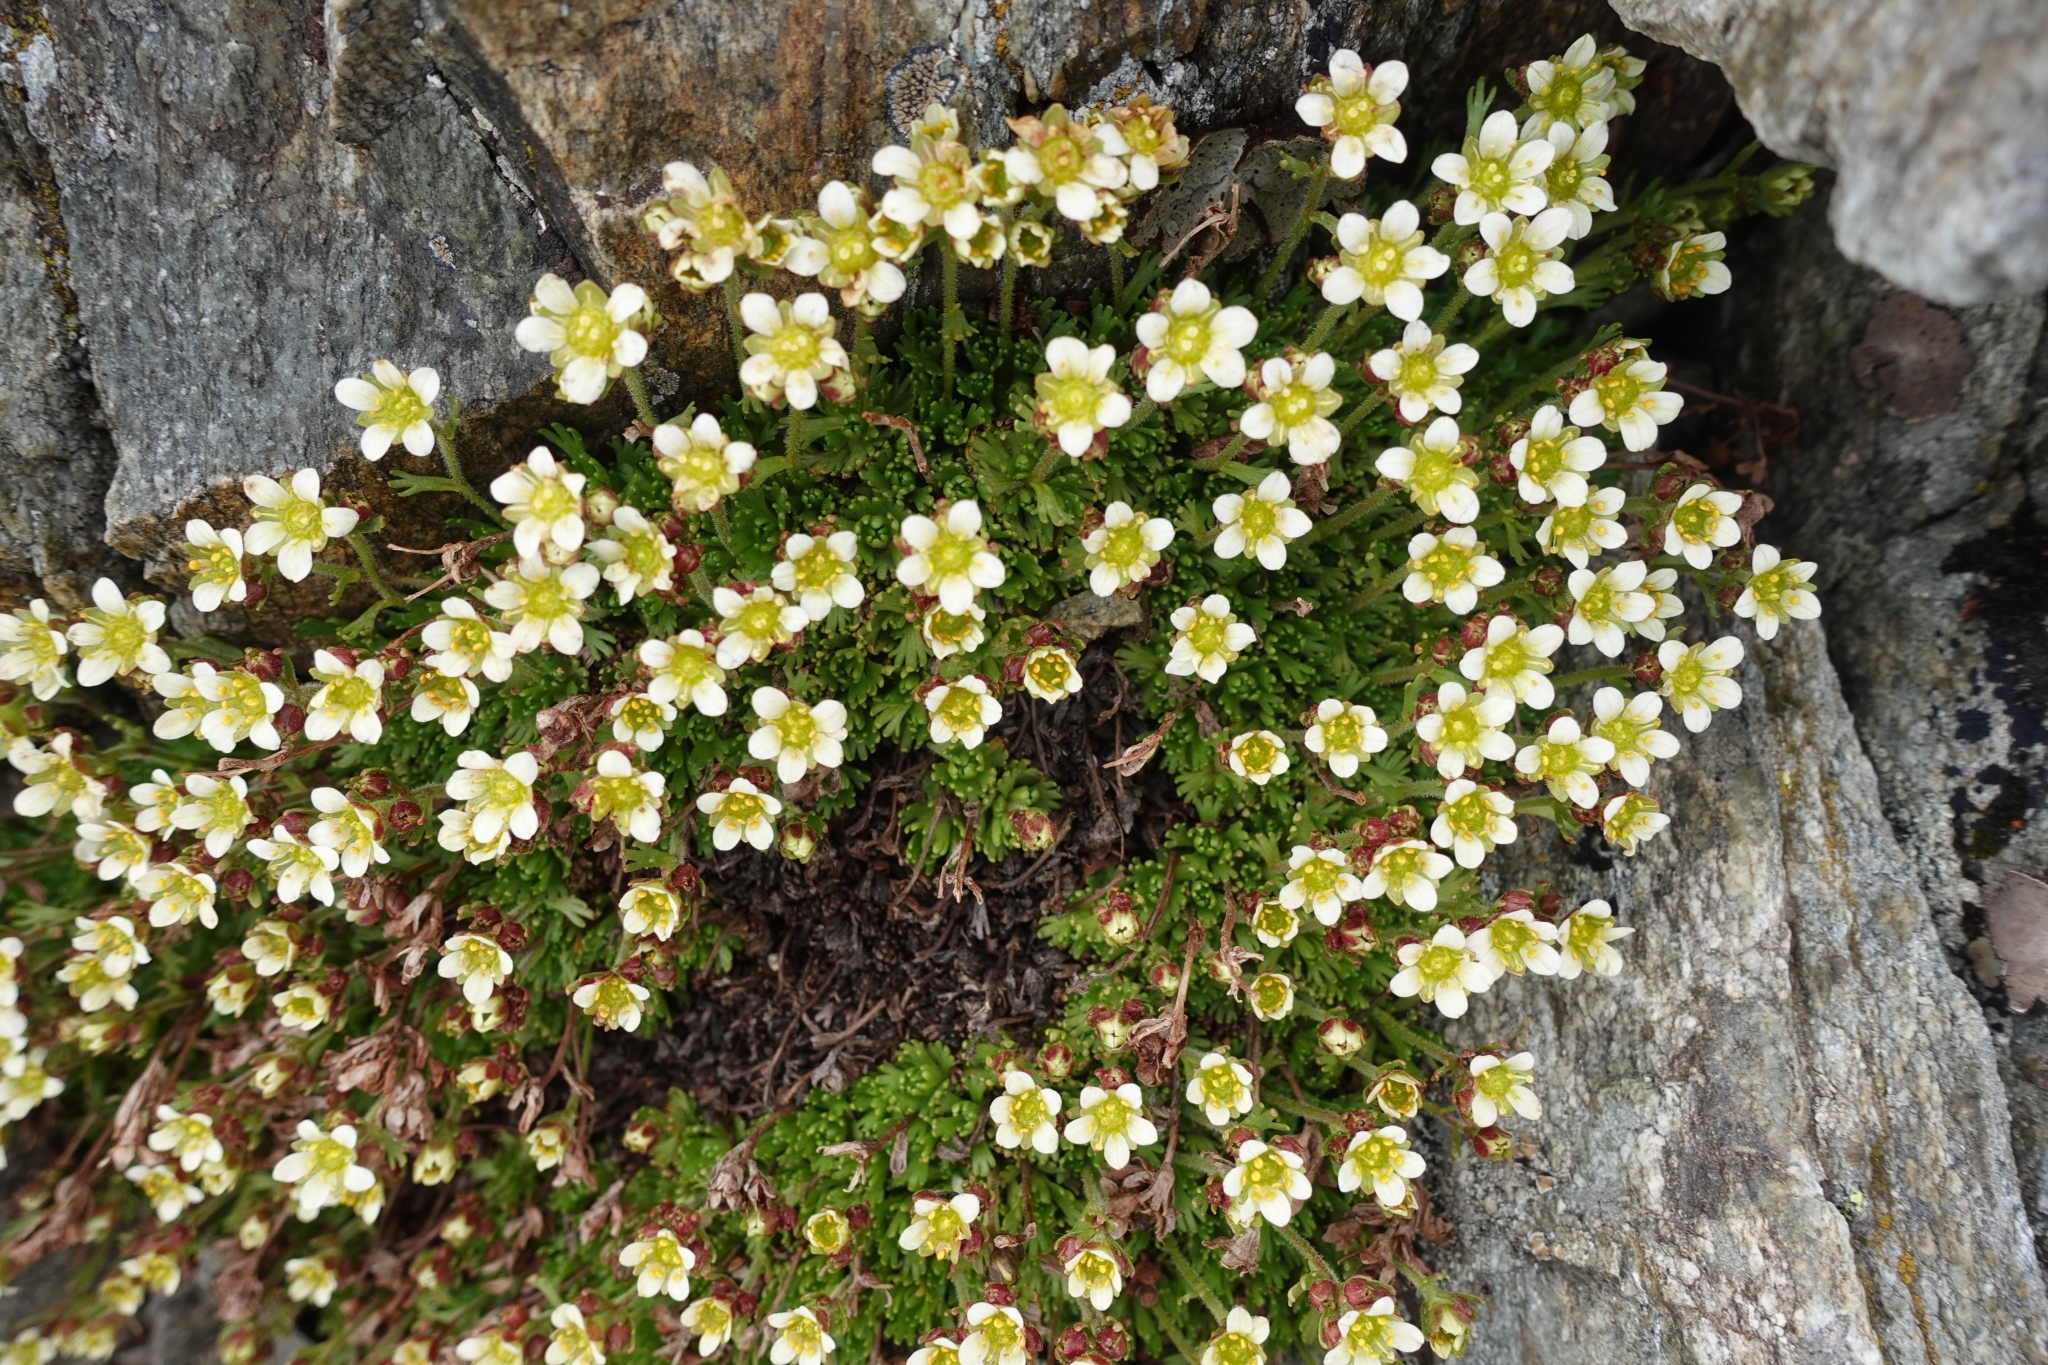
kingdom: Plantae
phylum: Tracheophyta
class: Magnoliopsida
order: Saxifragales
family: Saxifragaceae
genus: Saxifraga
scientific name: Saxifraga exarata
